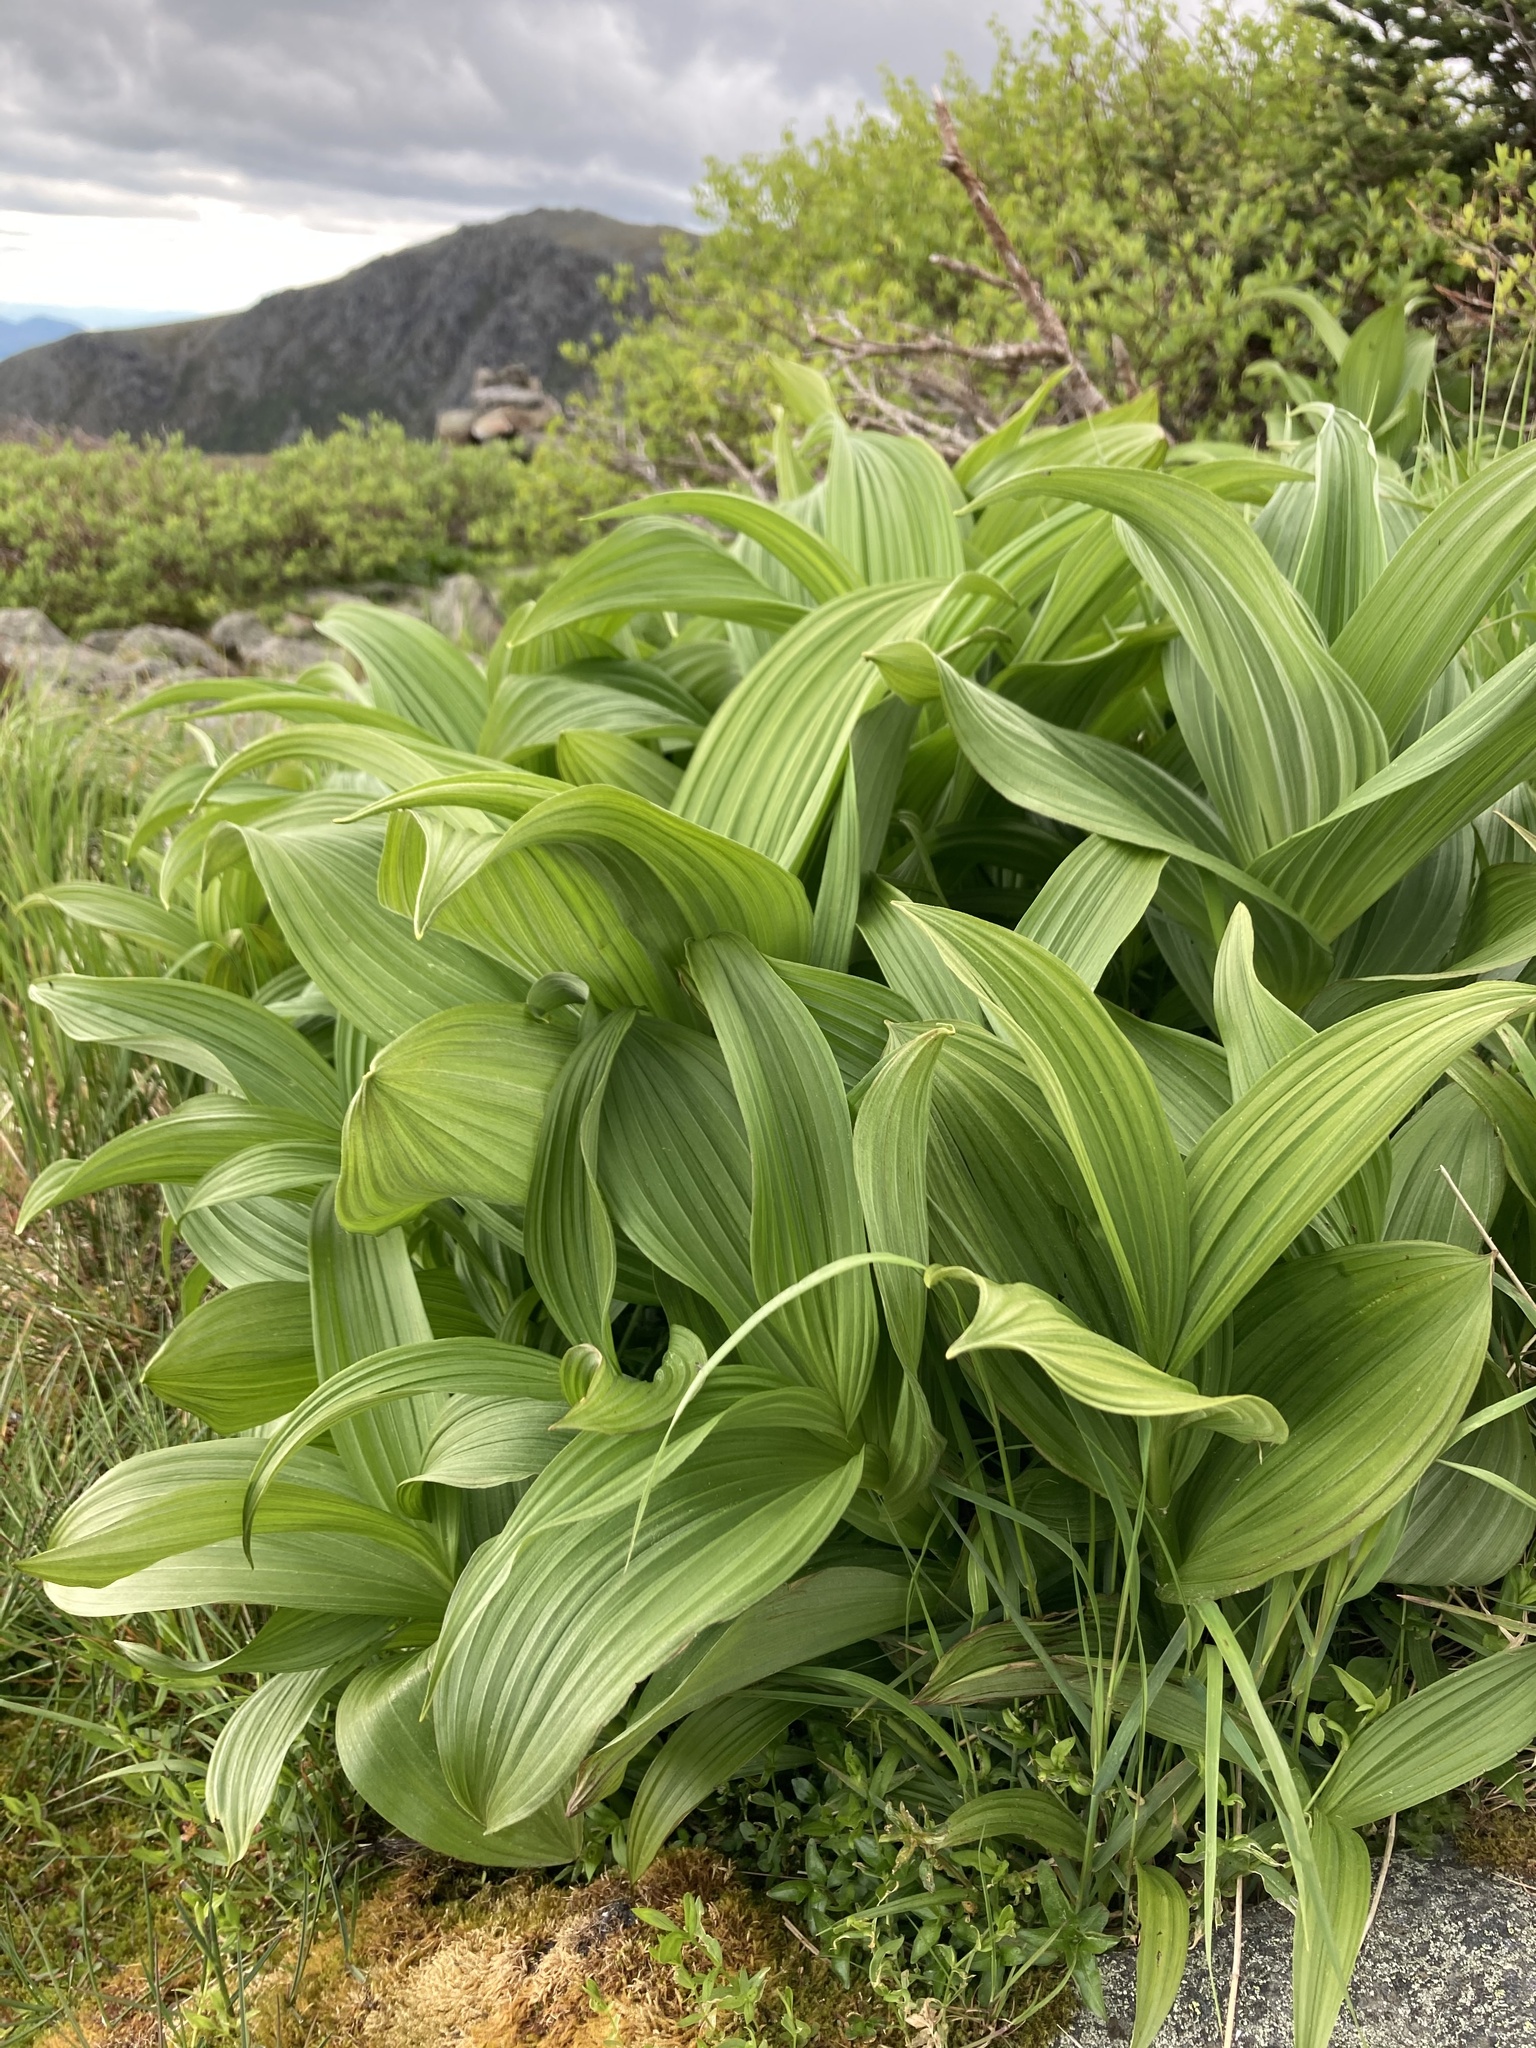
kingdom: Plantae
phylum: Tracheophyta
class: Liliopsida
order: Liliales
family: Melanthiaceae
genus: Veratrum
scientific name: Veratrum viride
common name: American false hellebore
